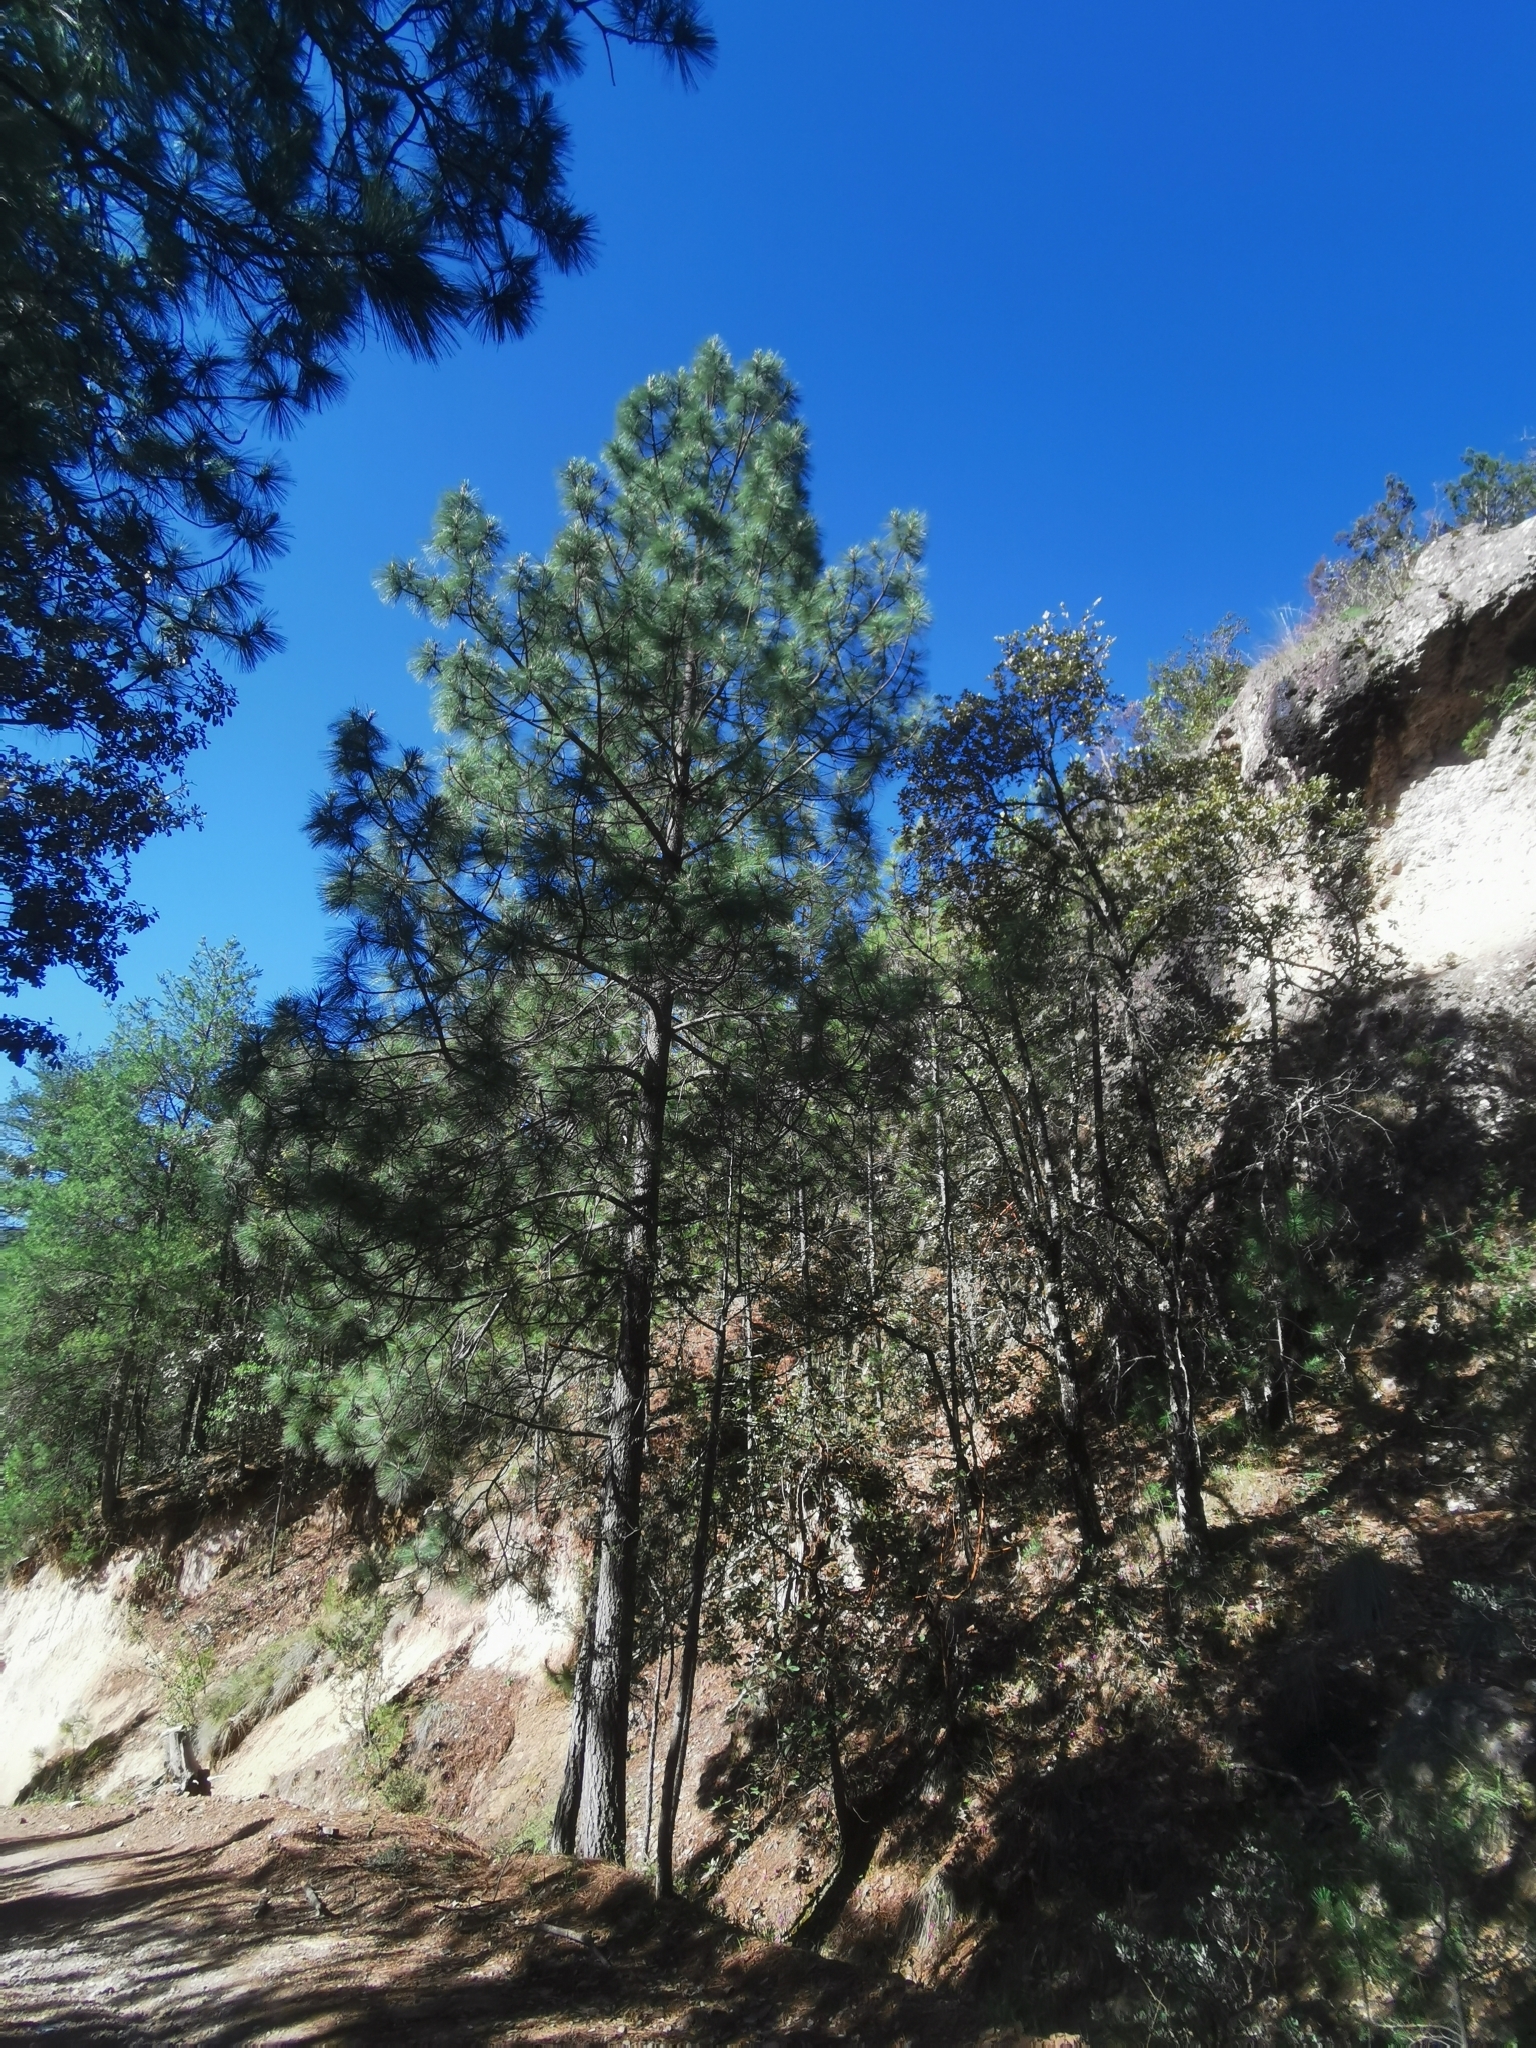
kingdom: Plantae
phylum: Tracheophyta
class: Pinopsida
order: Pinales
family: Pinaceae
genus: Pinus
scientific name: Pinus arizonica
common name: Arizona pine
